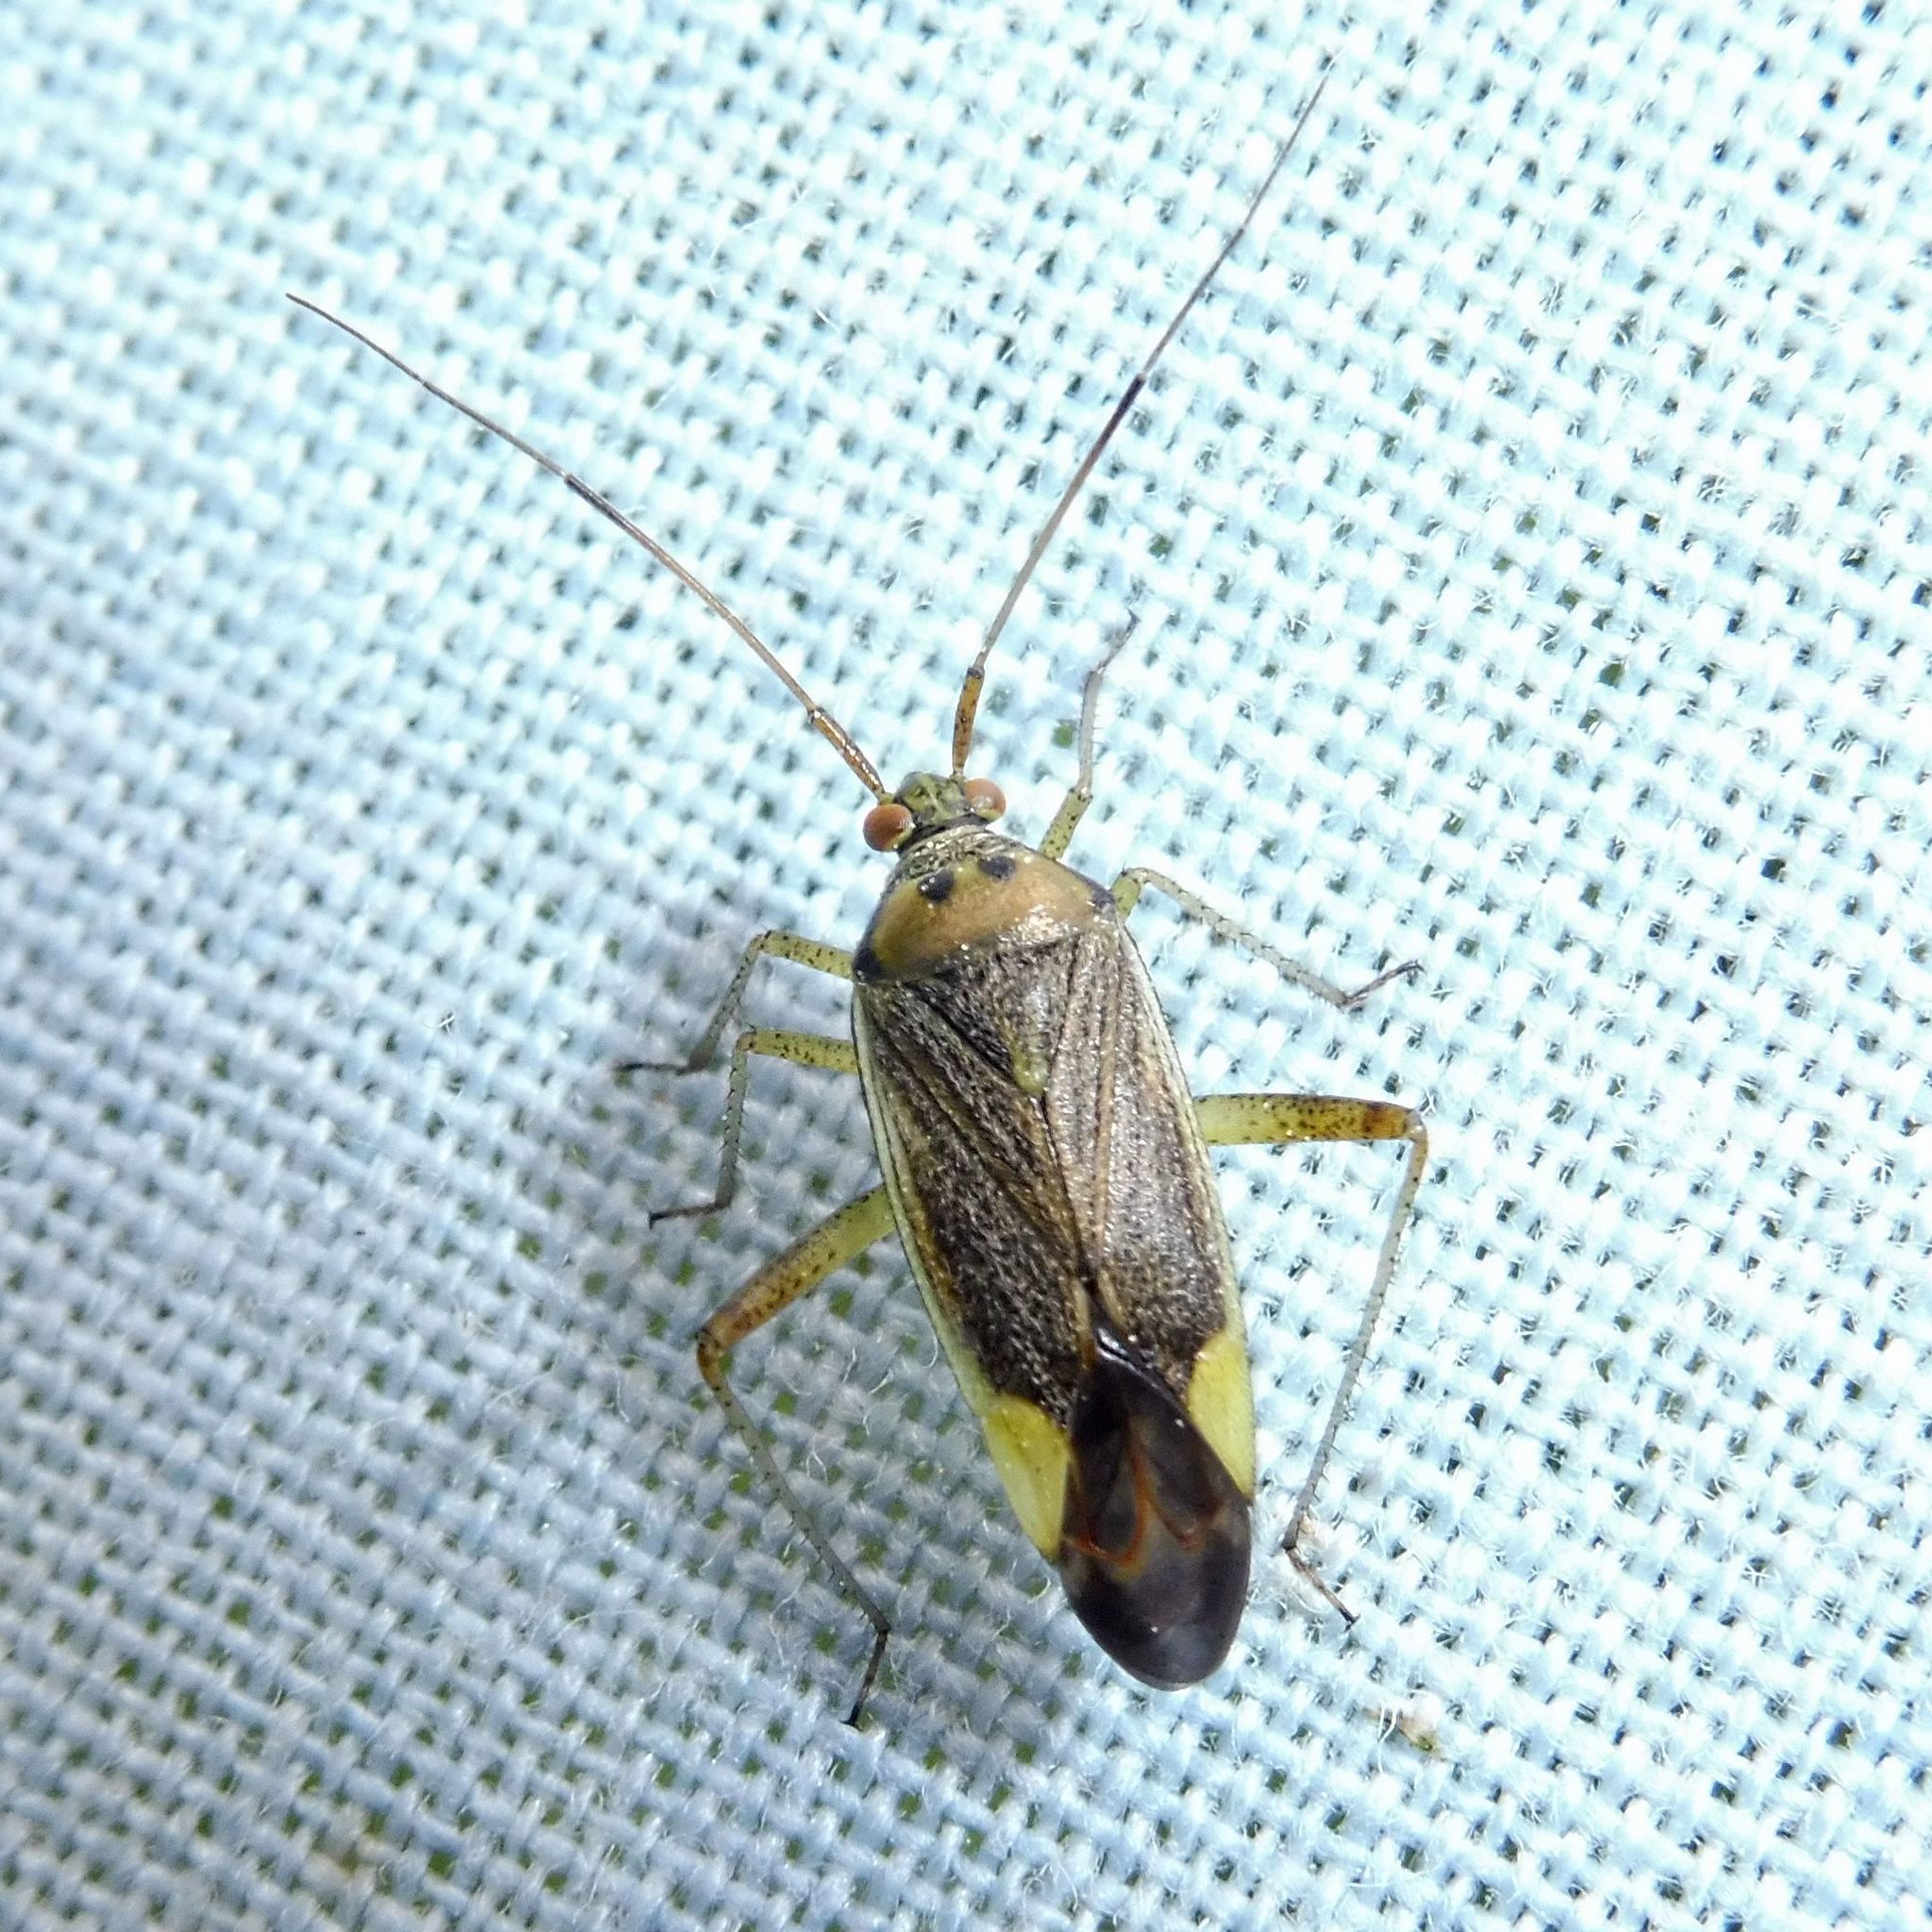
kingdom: Animalia
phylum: Arthropoda
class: Insecta
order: Hemiptera
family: Miridae
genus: Closterotomus
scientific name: Closterotomus trivialis
